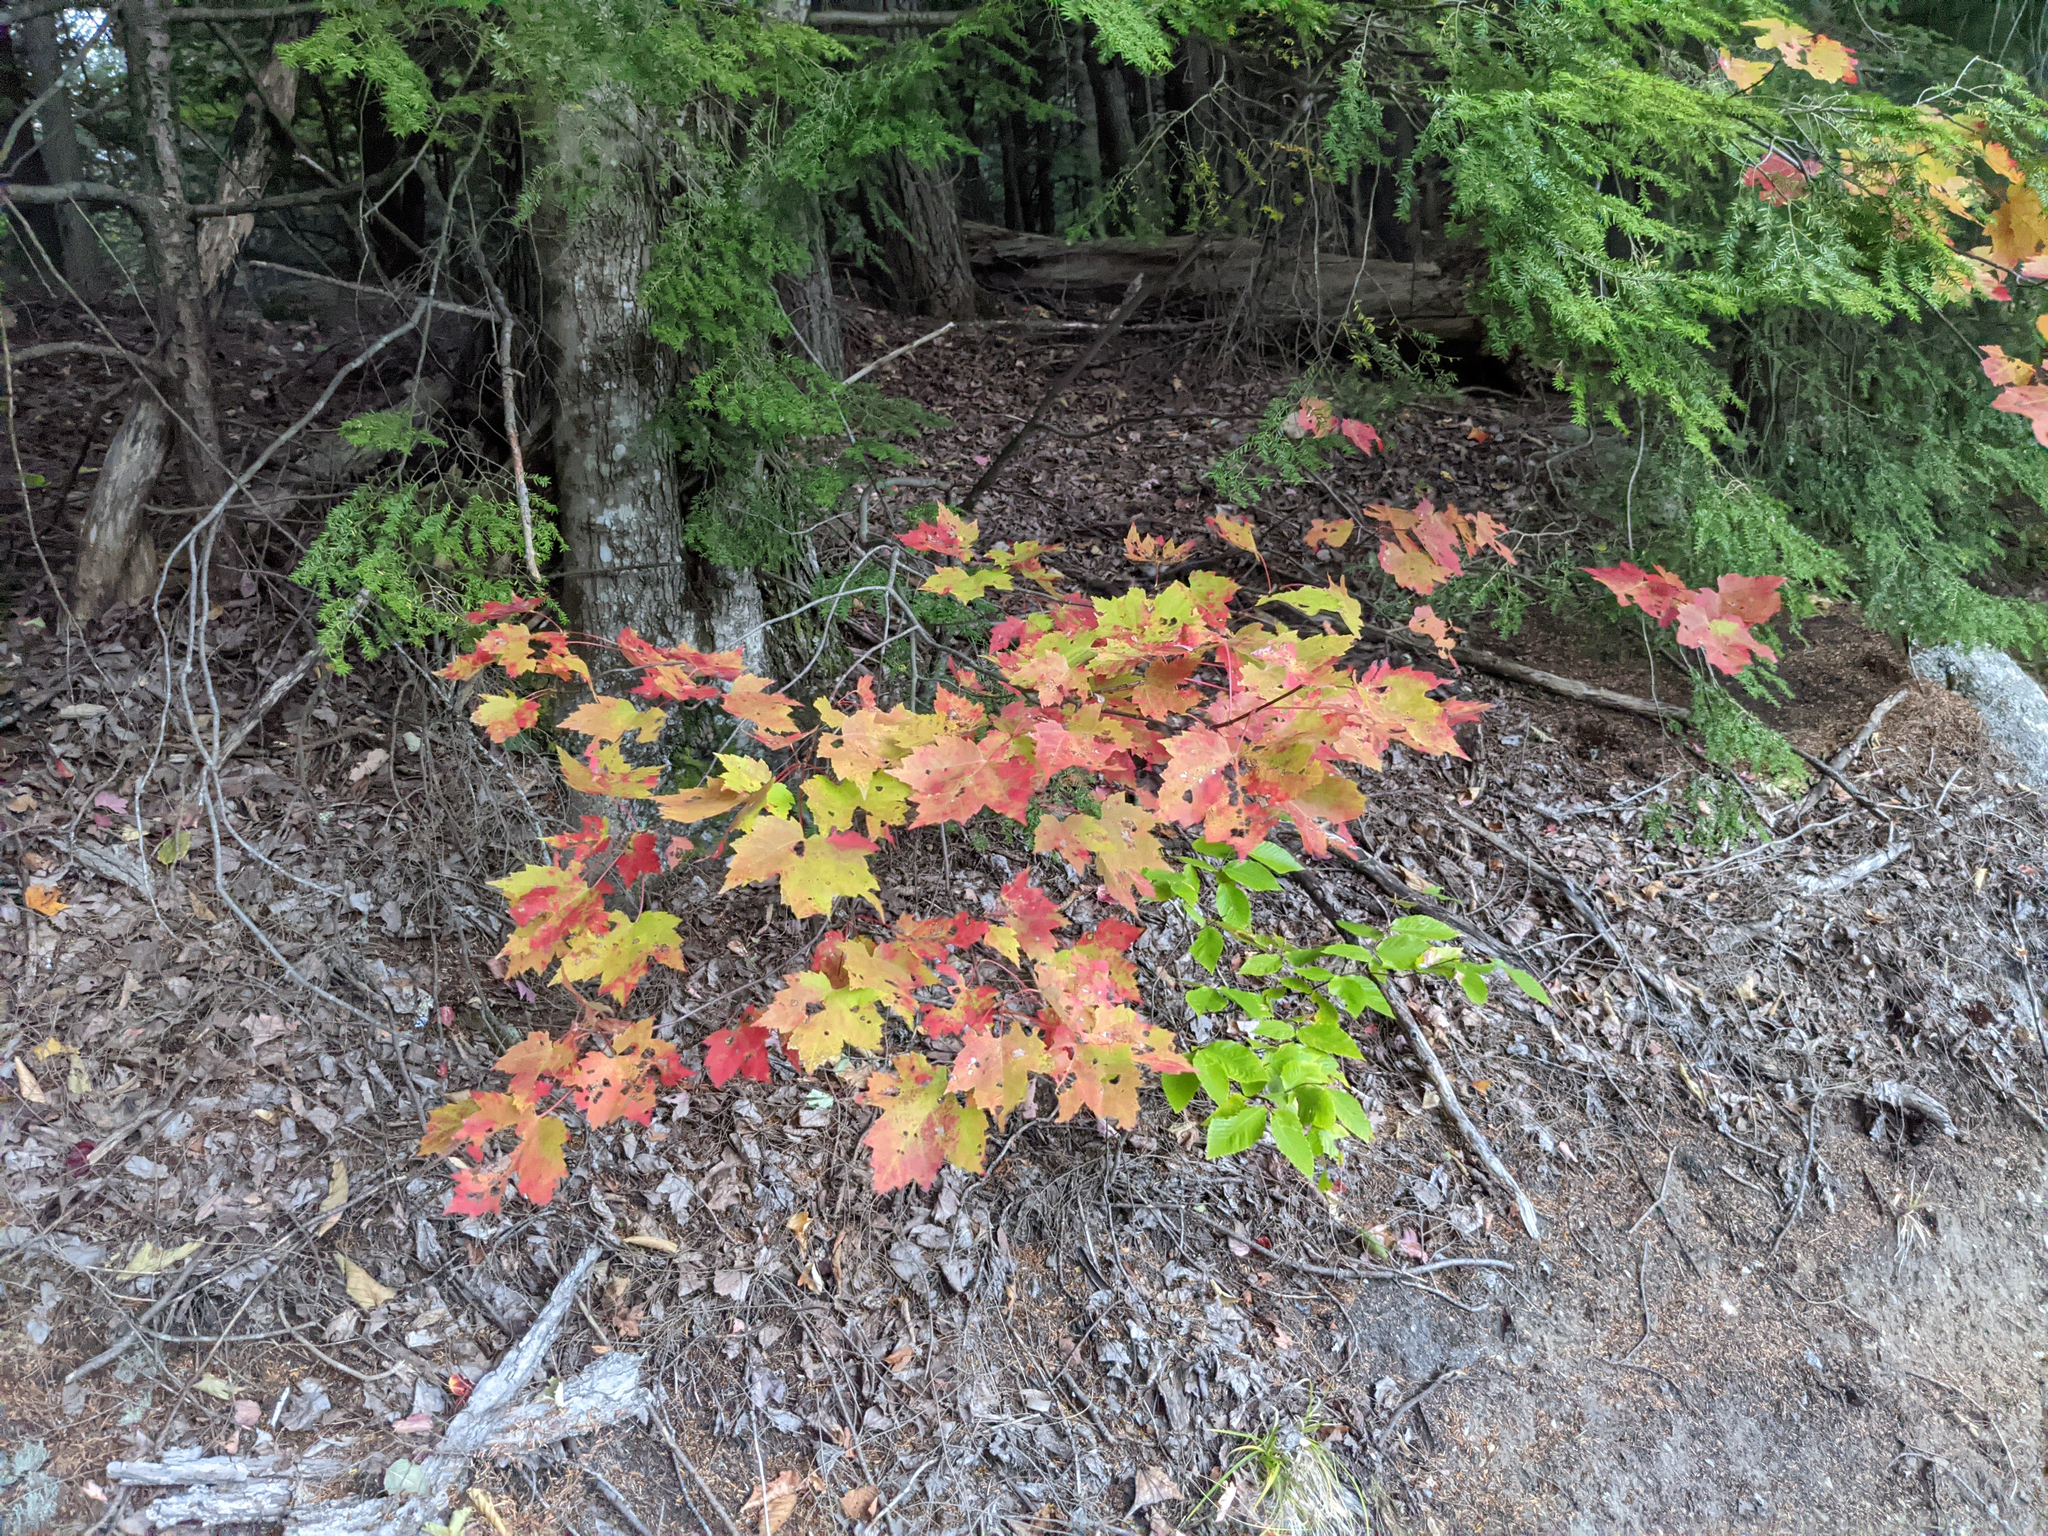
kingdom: Plantae
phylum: Tracheophyta
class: Magnoliopsida
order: Sapindales
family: Sapindaceae
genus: Acer
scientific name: Acer rubrum
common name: Red maple
